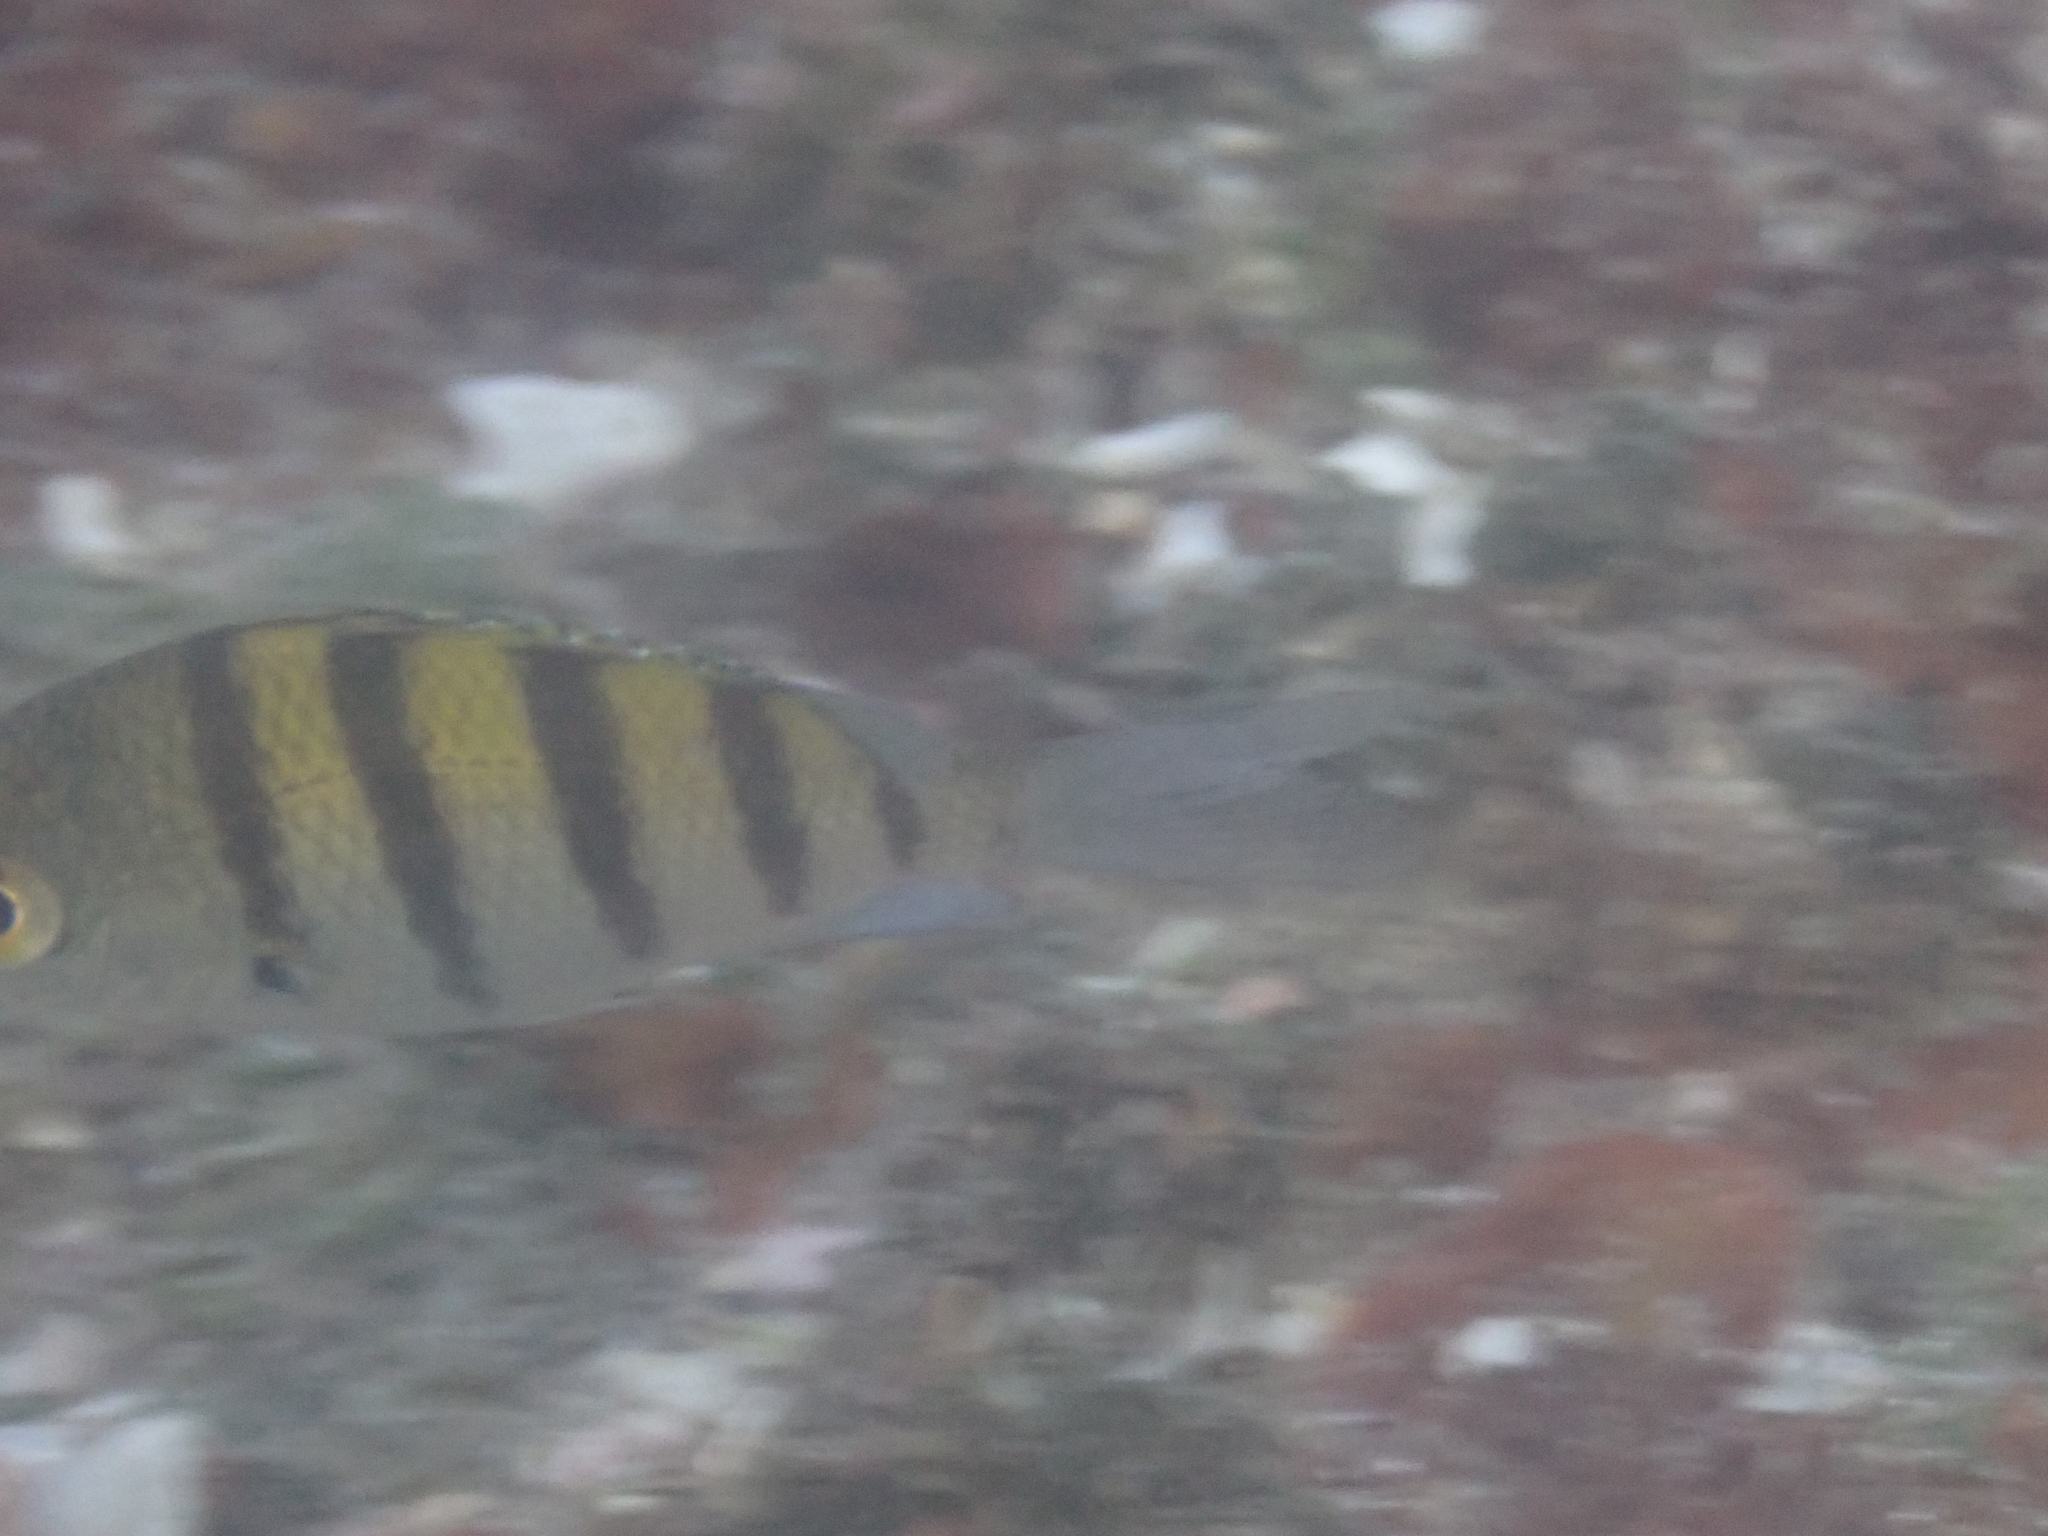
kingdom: Animalia
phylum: Chordata
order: Perciformes
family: Pomacentridae
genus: Abudefduf
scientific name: Abudefduf troschelii
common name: Panamic sergeant major
